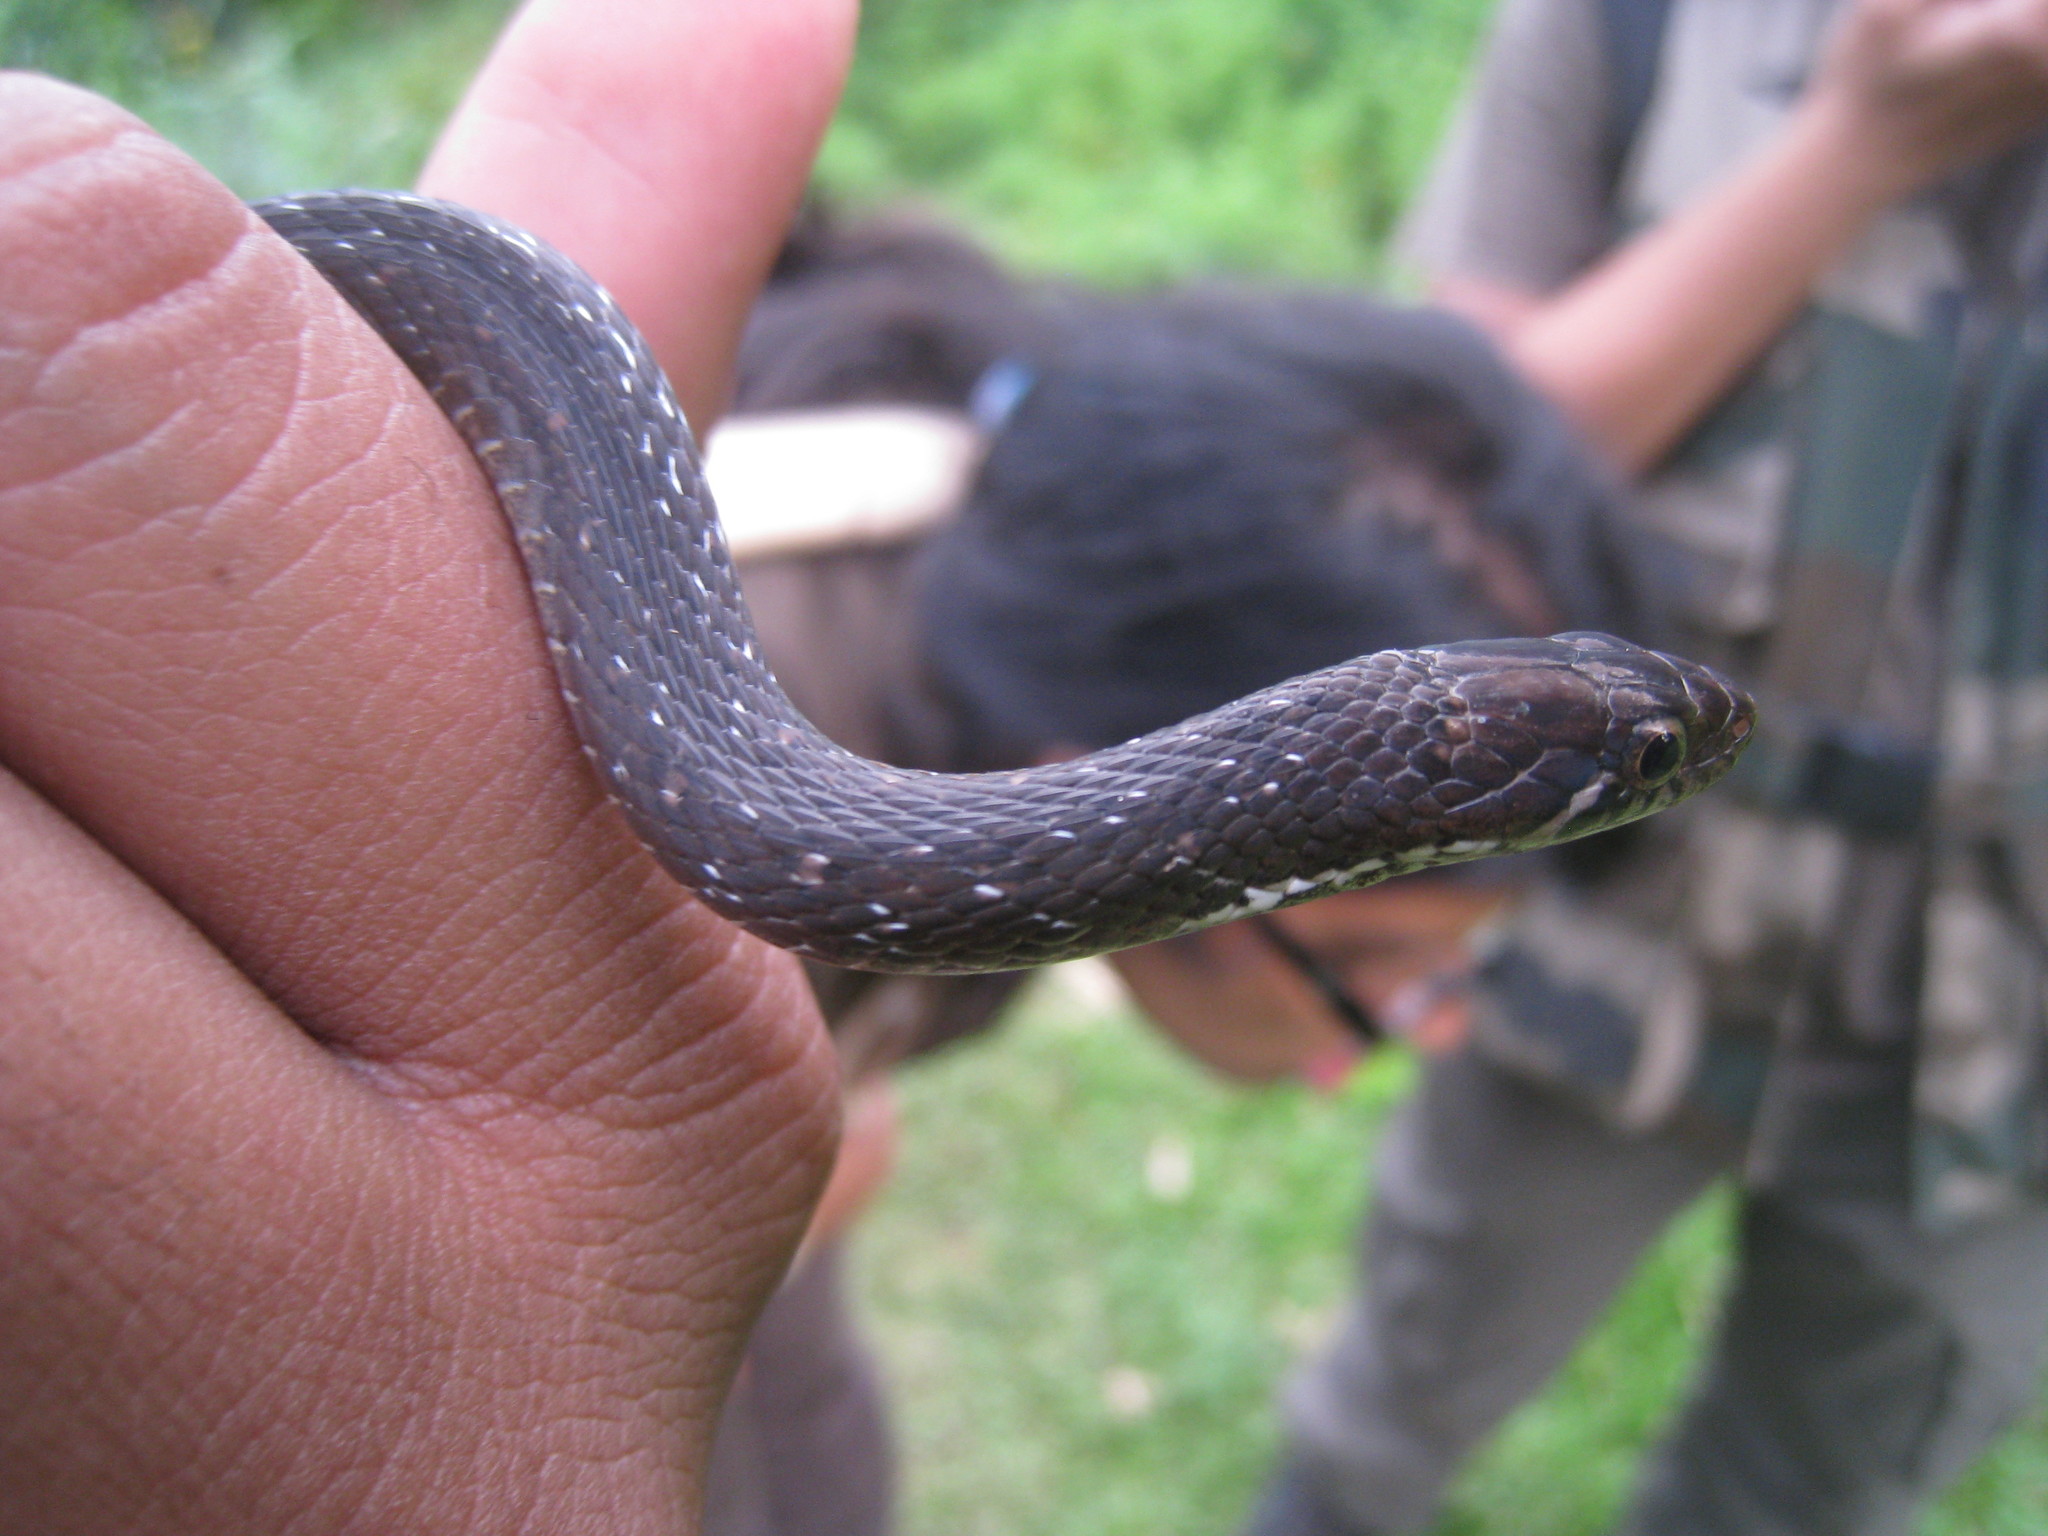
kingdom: Animalia
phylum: Chordata
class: Squamata
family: Colubridae
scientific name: Colubridae
